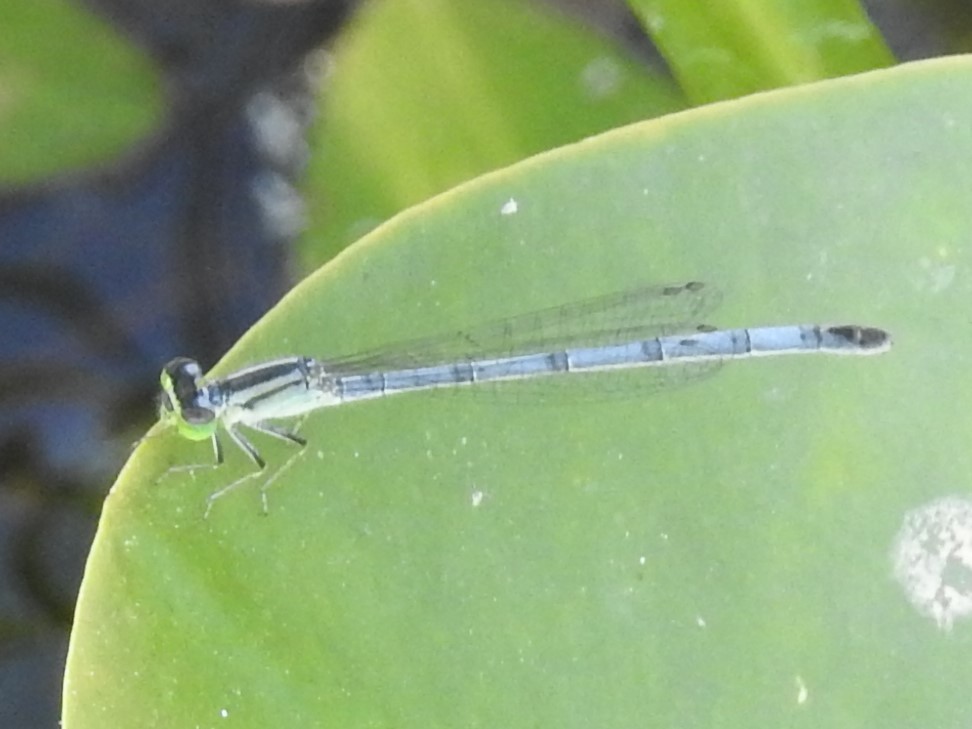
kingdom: Animalia
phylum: Arthropoda
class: Insecta
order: Odonata
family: Coenagrionidae
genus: Ischnura
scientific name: Ischnura verticalis
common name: Eastern forktail
